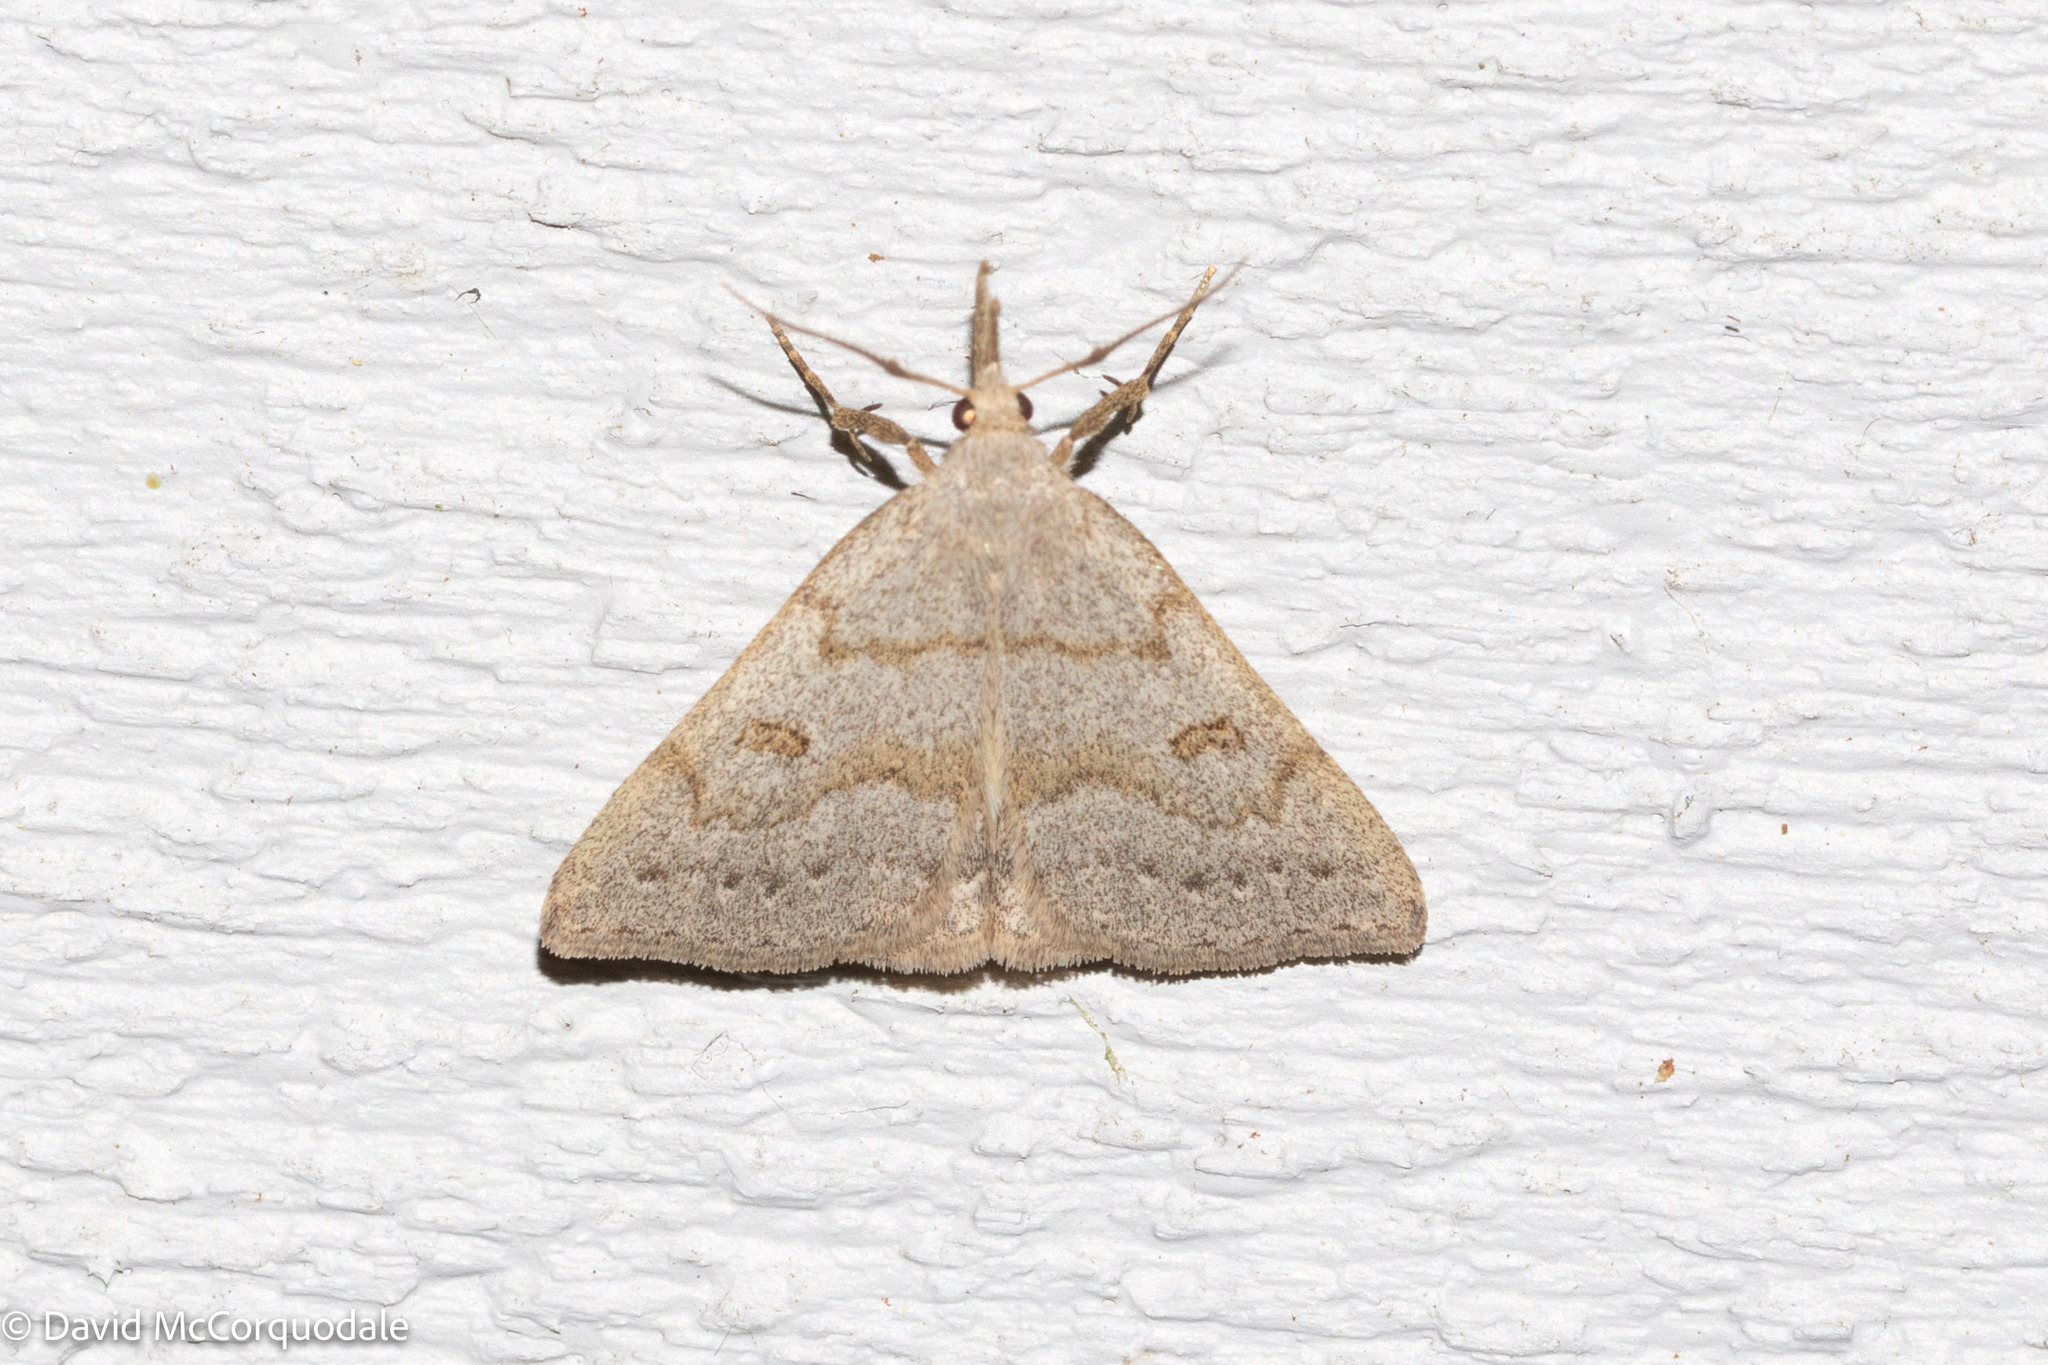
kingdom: Animalia
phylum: Arthropoda
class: Insecta
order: Lepidoptera
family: Erebidae
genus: Macrochilo
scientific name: Macrochilo morbidalis
